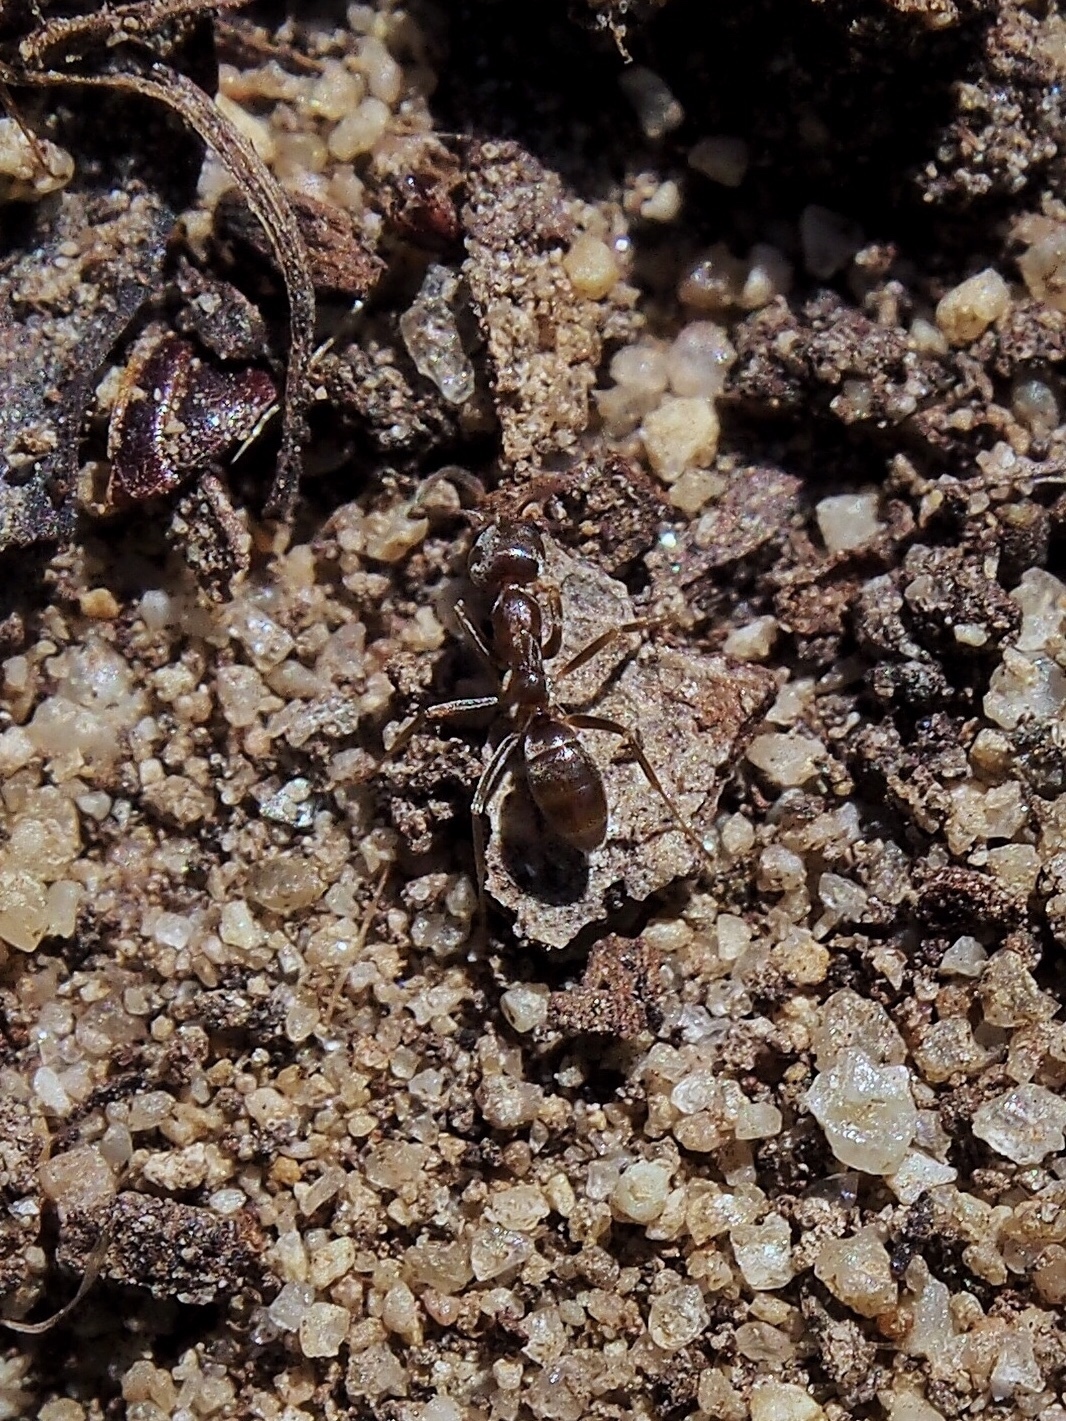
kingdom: Animalia
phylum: Arthropoda
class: Insecta
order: Hymenoptera
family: Formicidae
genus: Linepithema
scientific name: Linepithema humile
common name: Argentine ant
